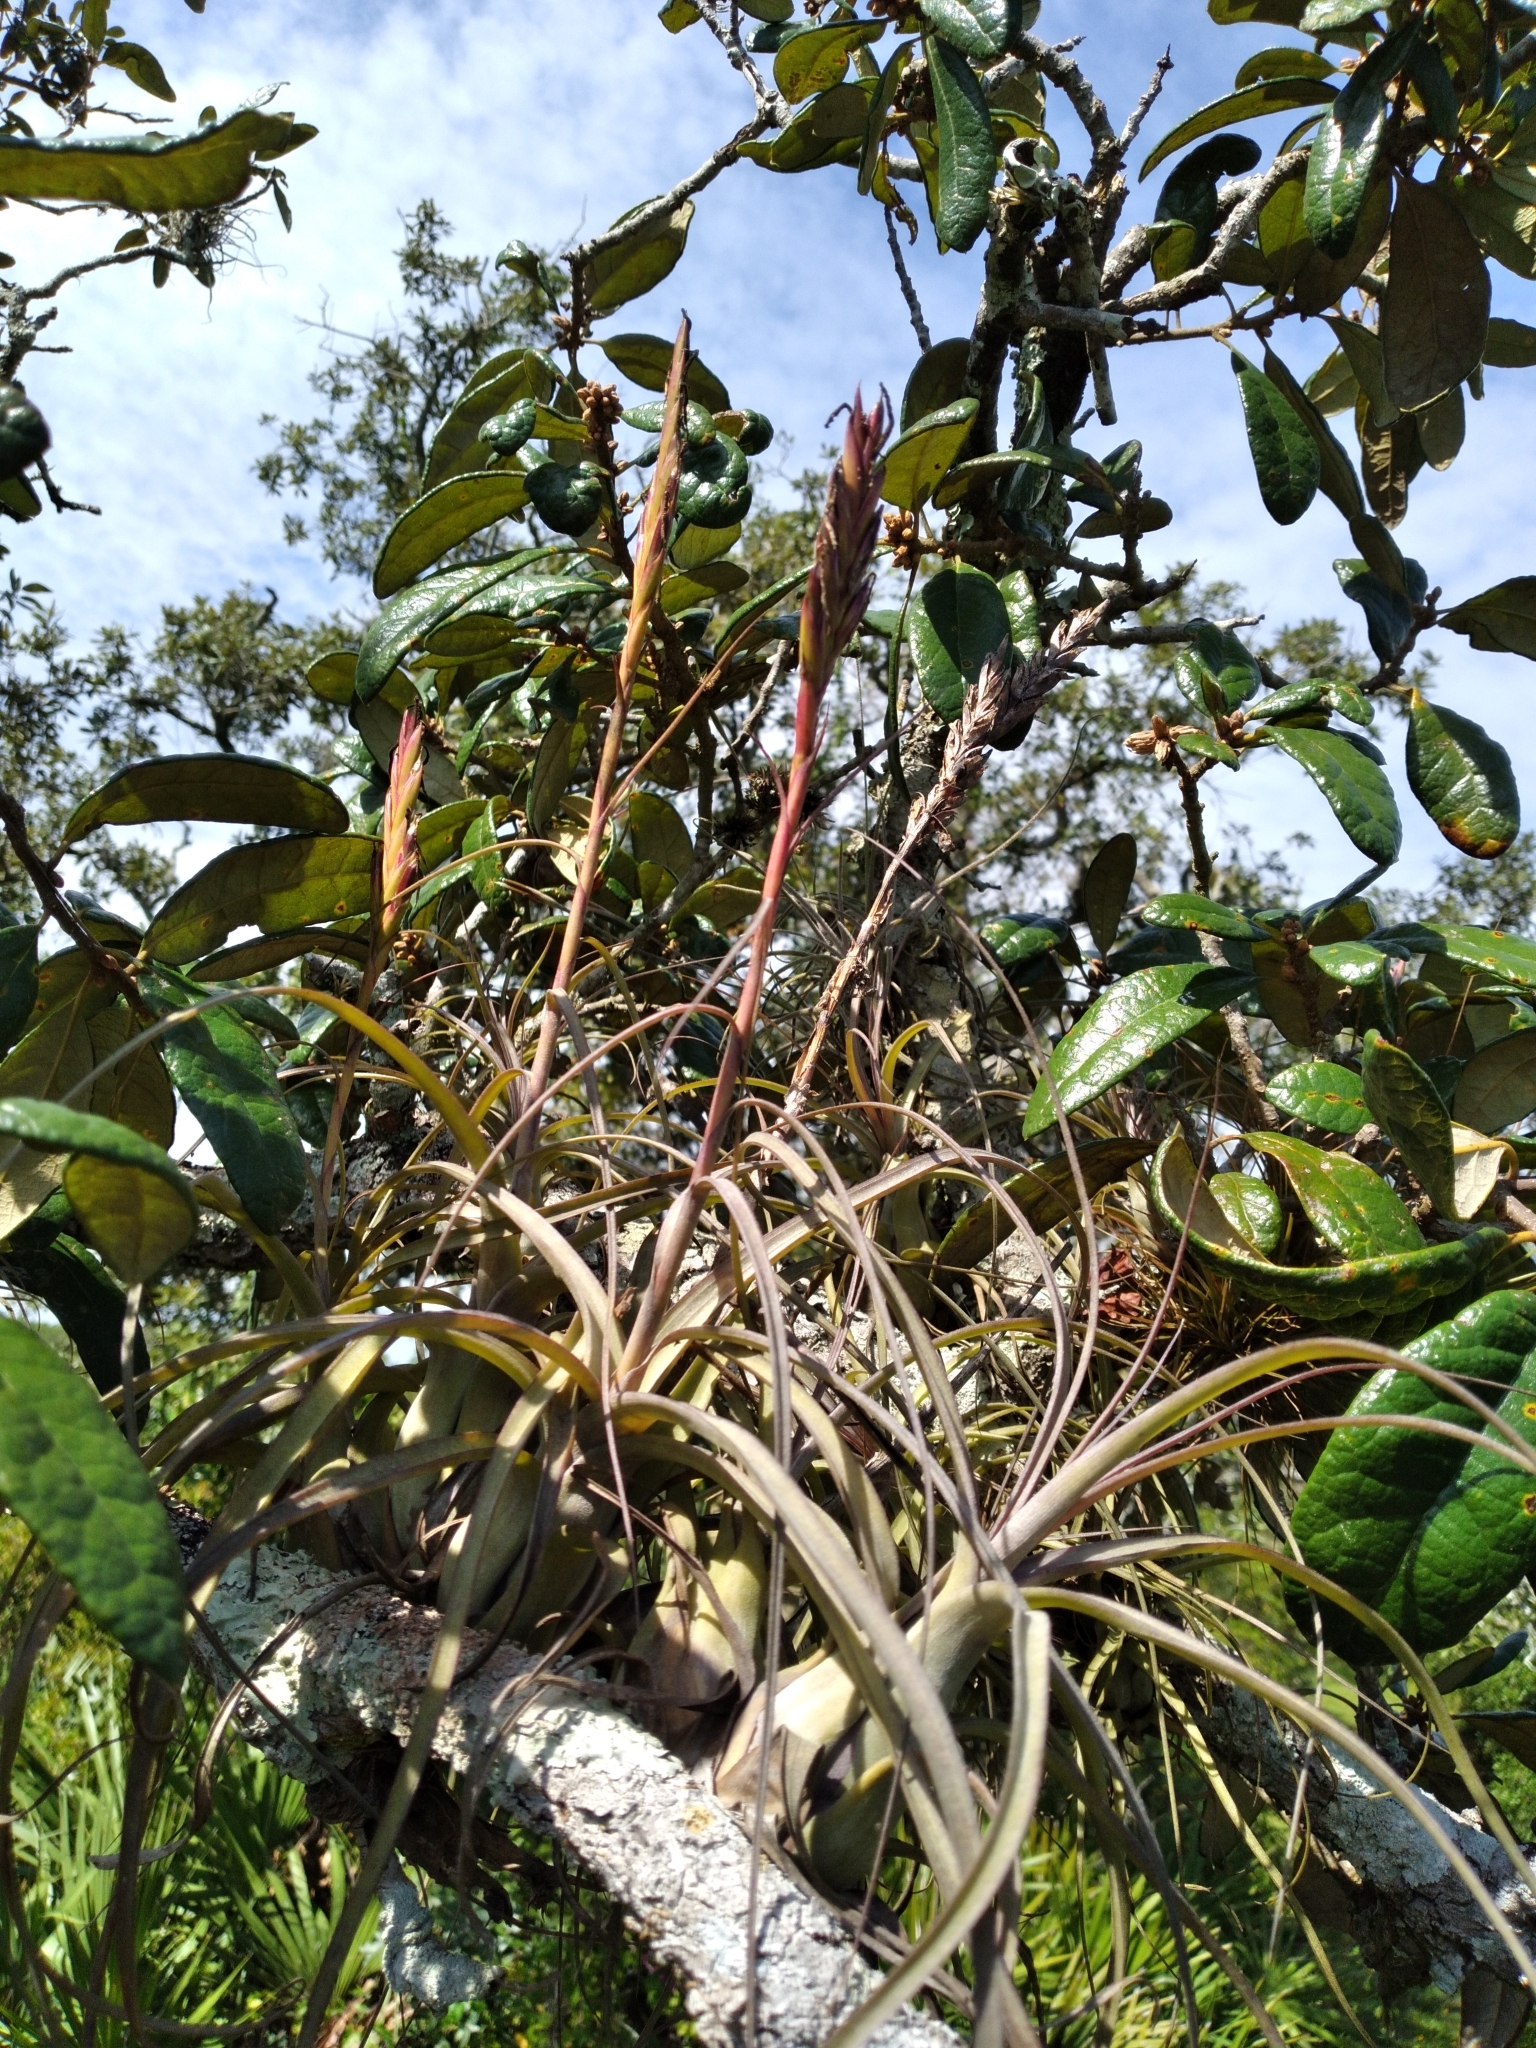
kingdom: Plantae
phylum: Tracheophyta
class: Liliopsida
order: Poales
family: Bromeliaceae
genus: Tillandsia
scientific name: Tillandsia balbisiana
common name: Northern needleleaf
